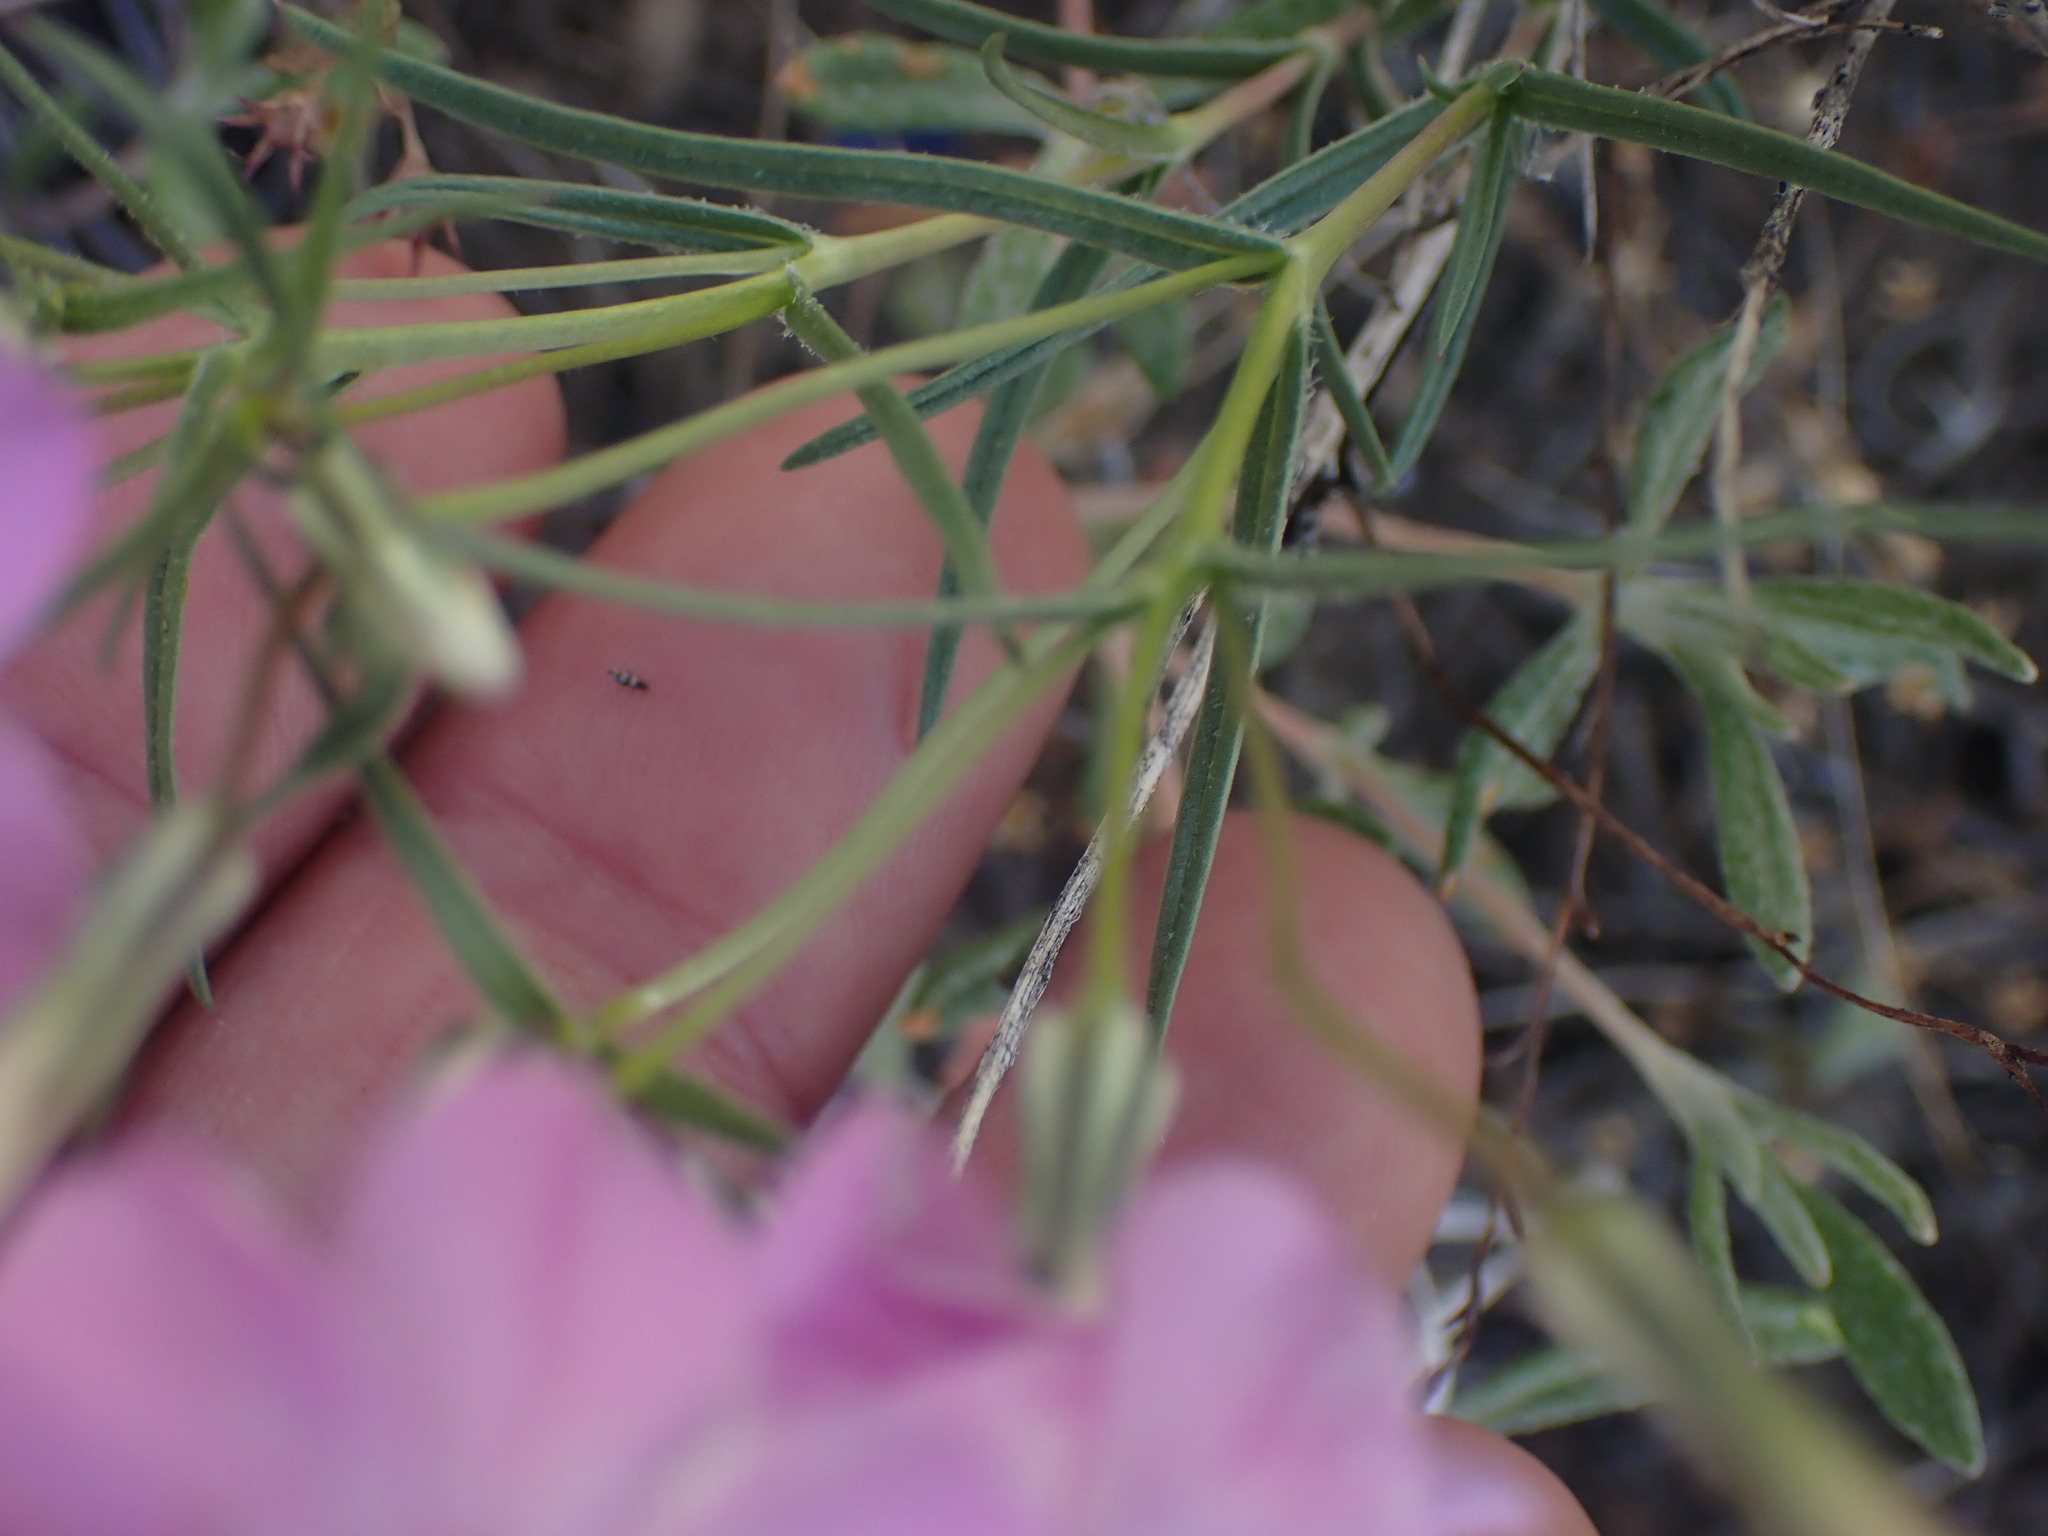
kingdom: Plantae
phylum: Tracheophyta
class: Magnoliopsida
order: Ericales
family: Polemoniaceae
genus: Phlox
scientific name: Phlox longifolia
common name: Longleaf phlox
